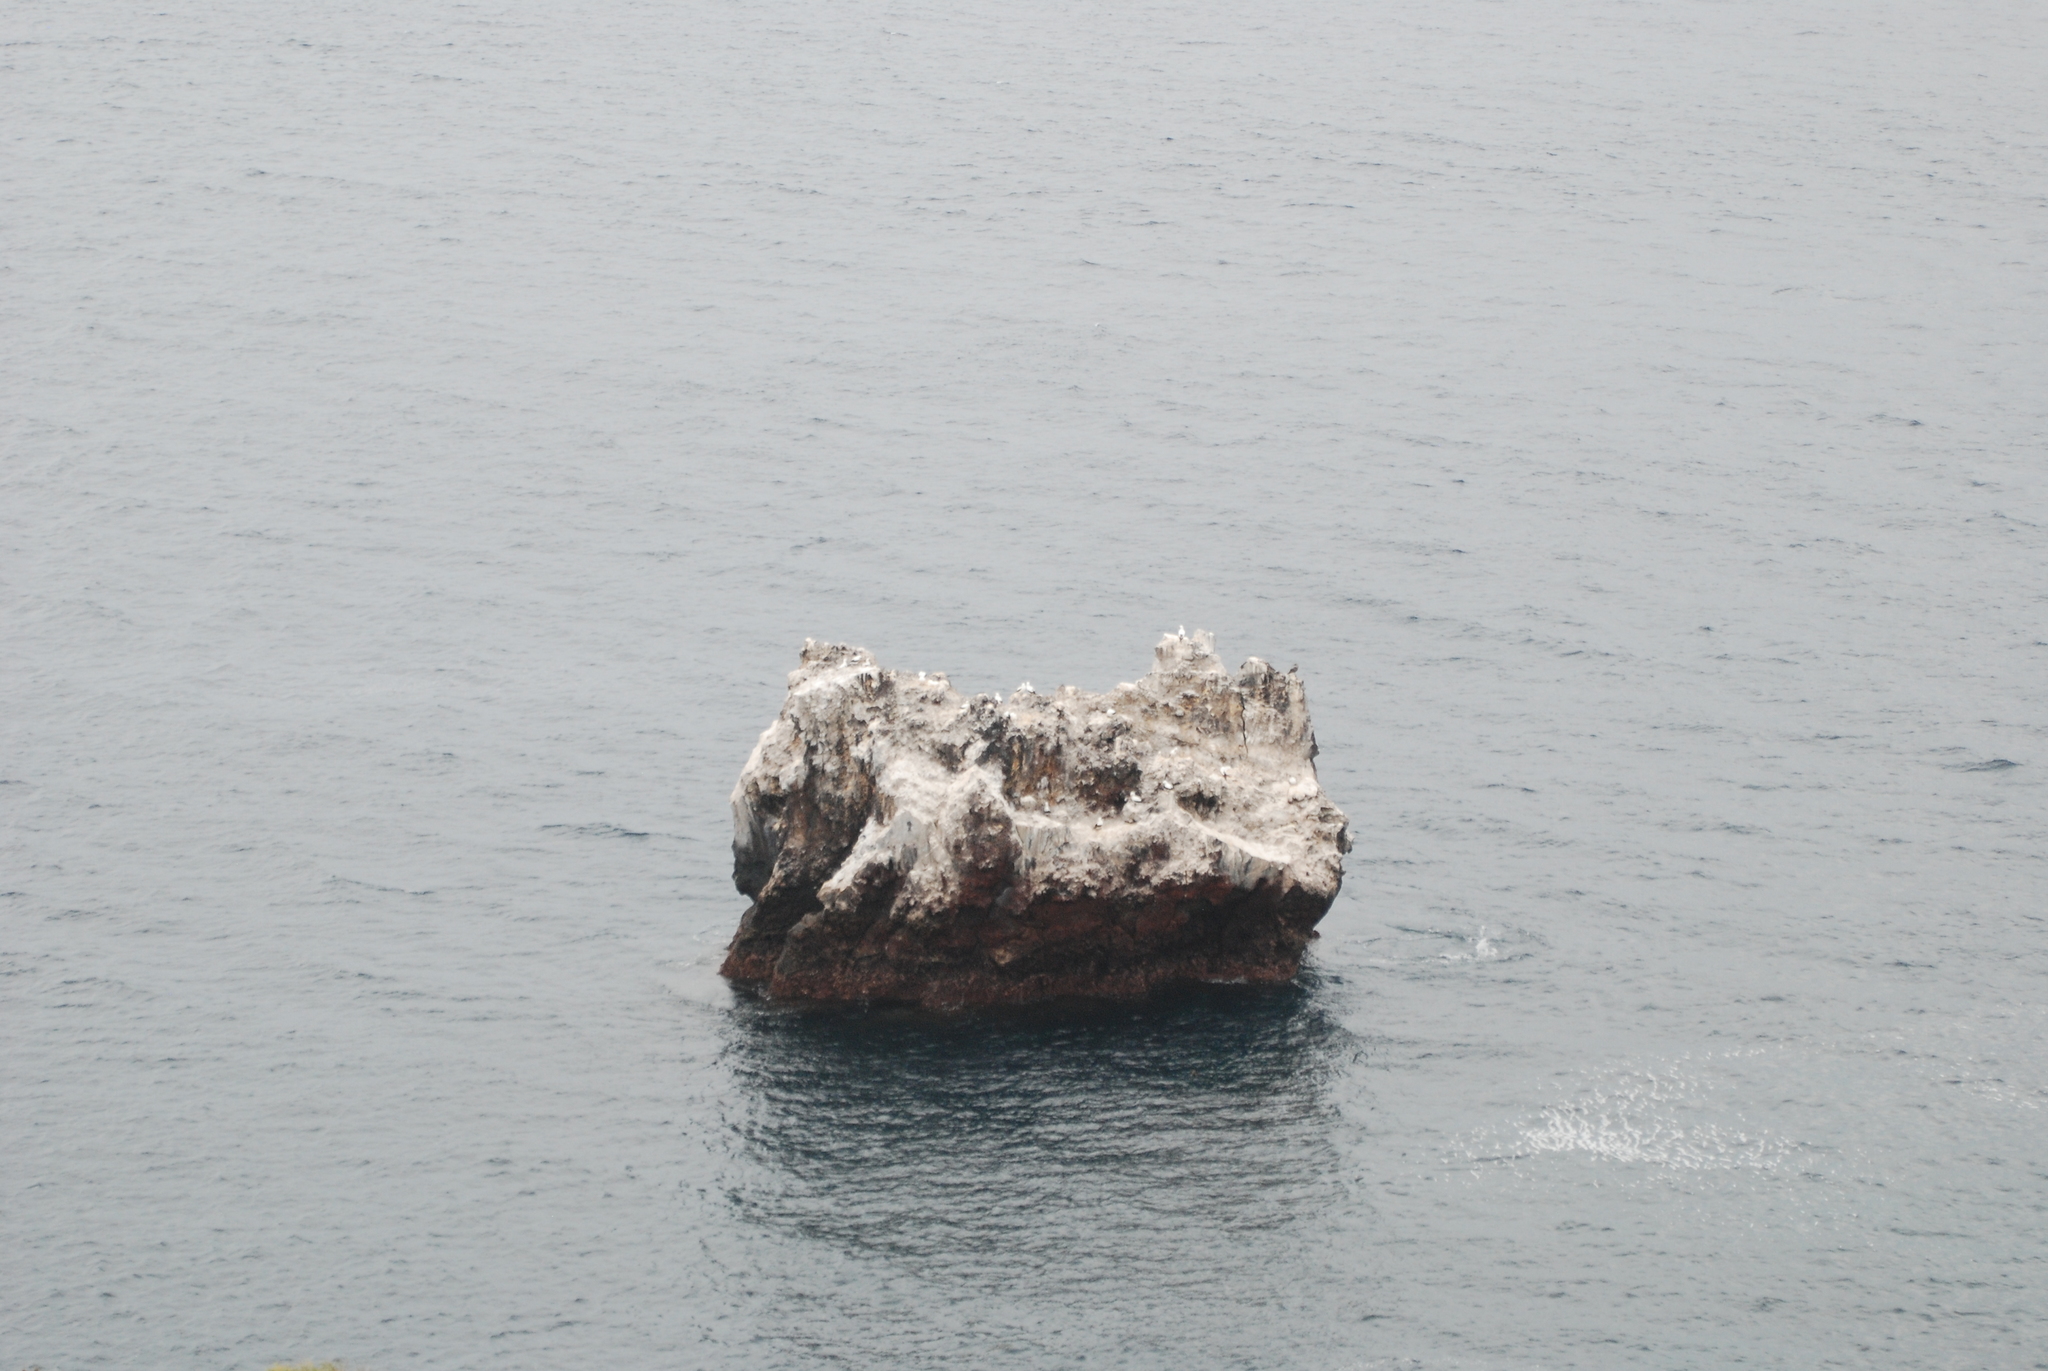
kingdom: Animalia
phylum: Chordata
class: Aves
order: Suliformes
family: Sulidae
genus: Sula
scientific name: Sula granti
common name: Nazca booby
